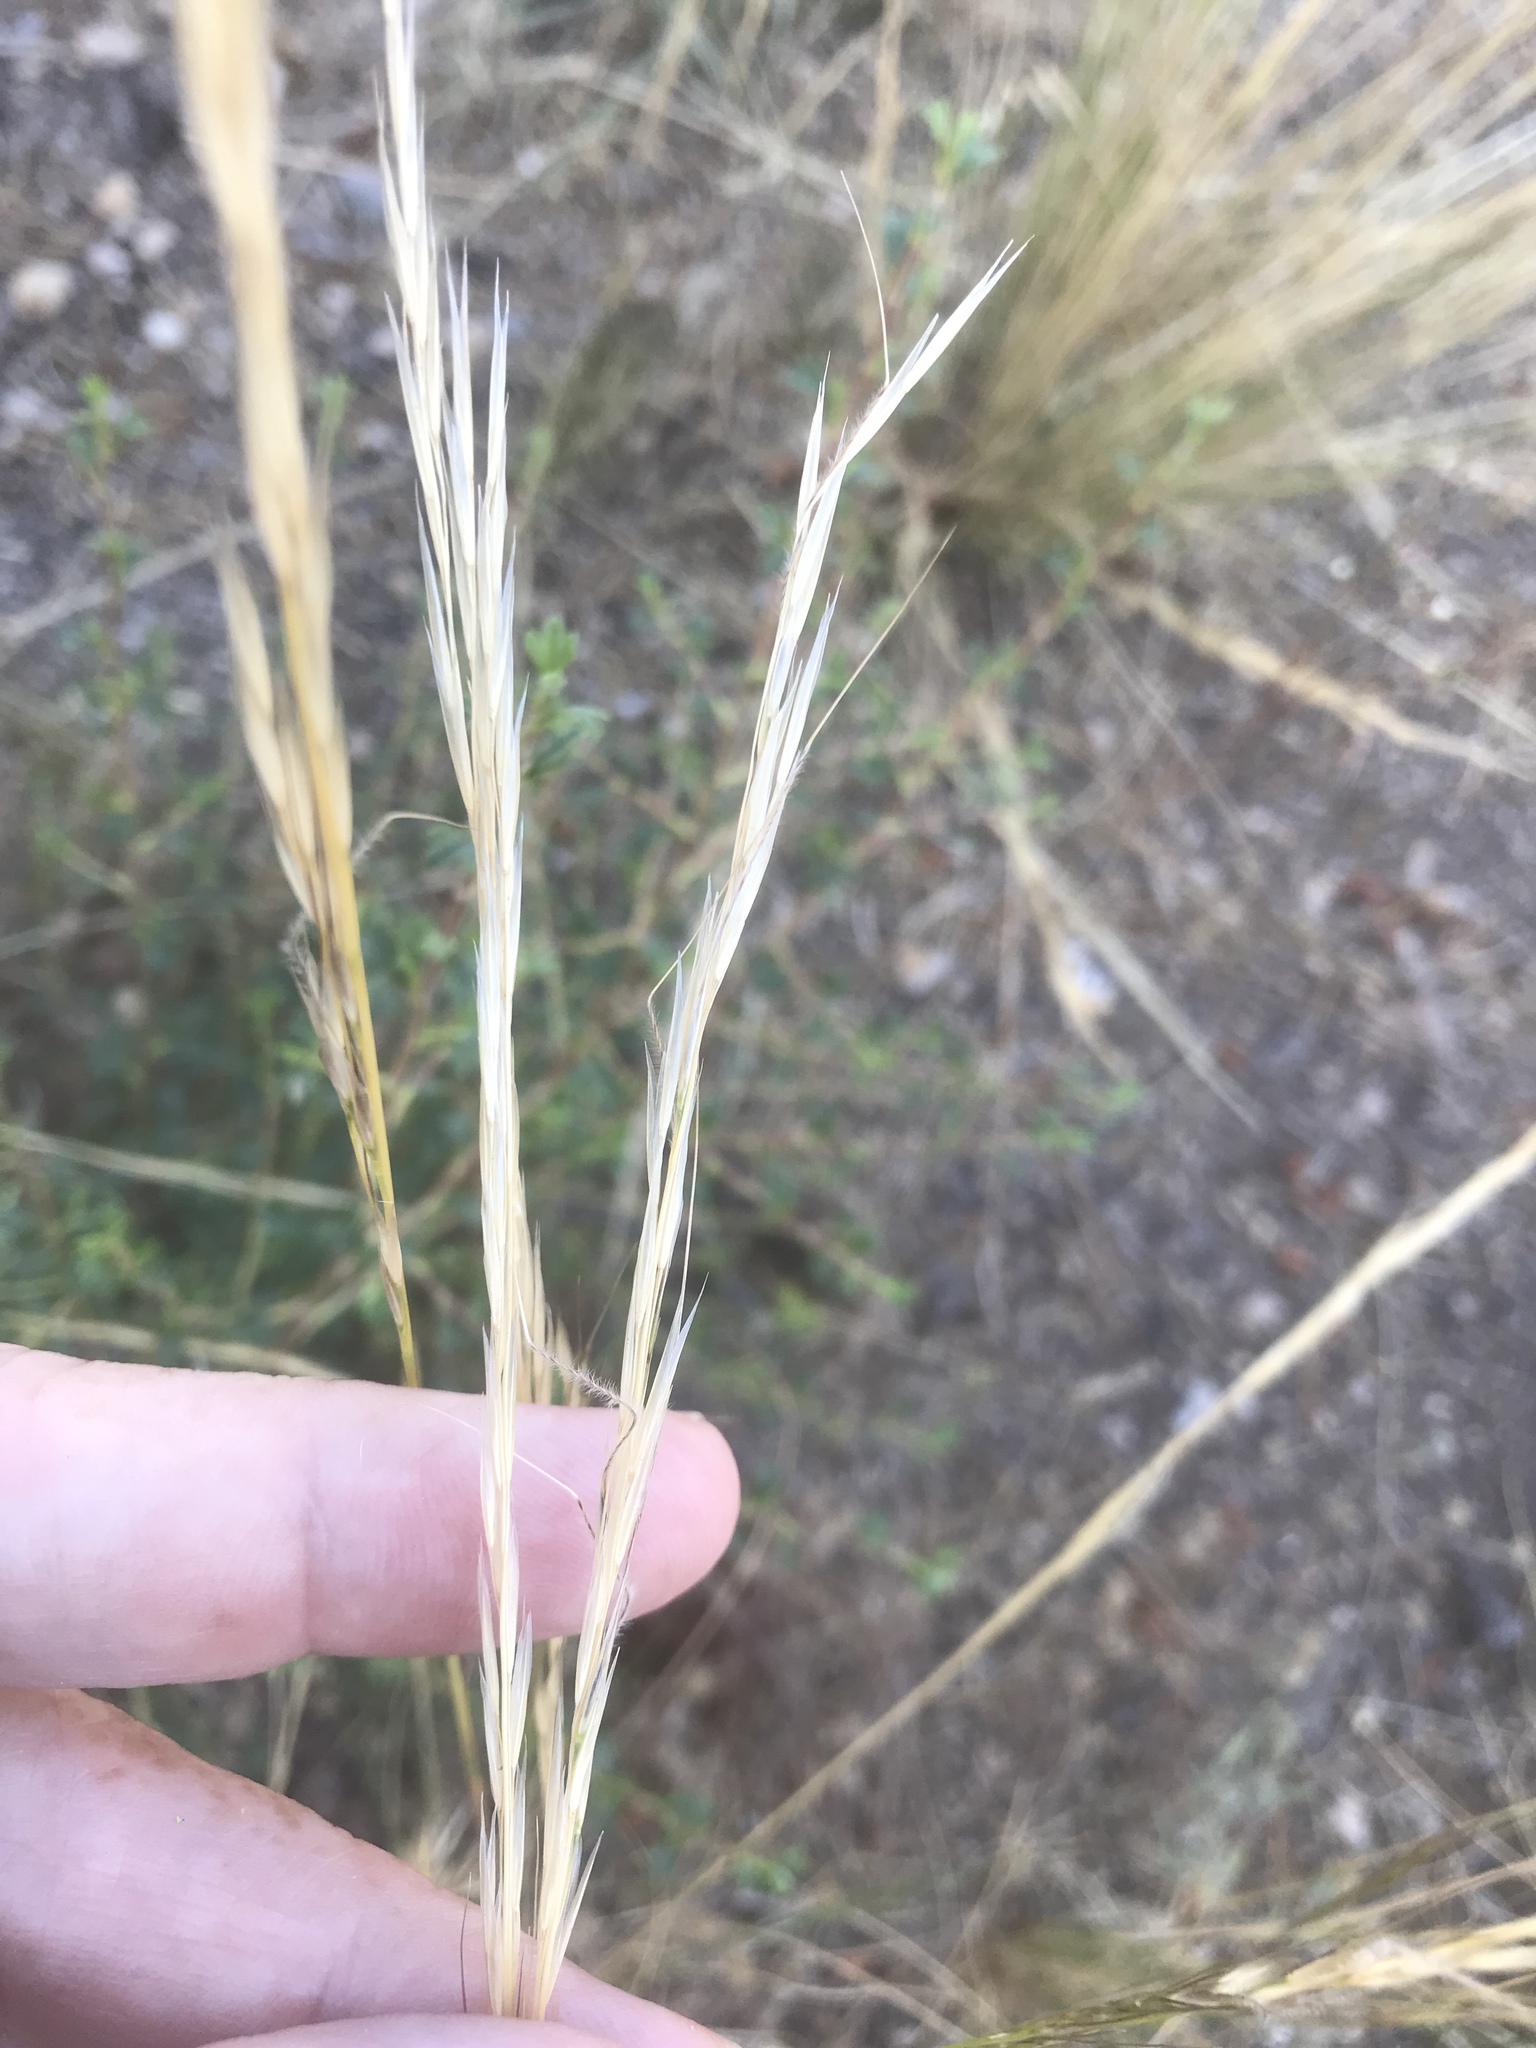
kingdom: Plantae
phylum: Tracheophyta
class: Liliopsida
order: Poales
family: Poaceae
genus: Eriocoma
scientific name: Eriocoma occidentalis
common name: Stiff needlegrass
